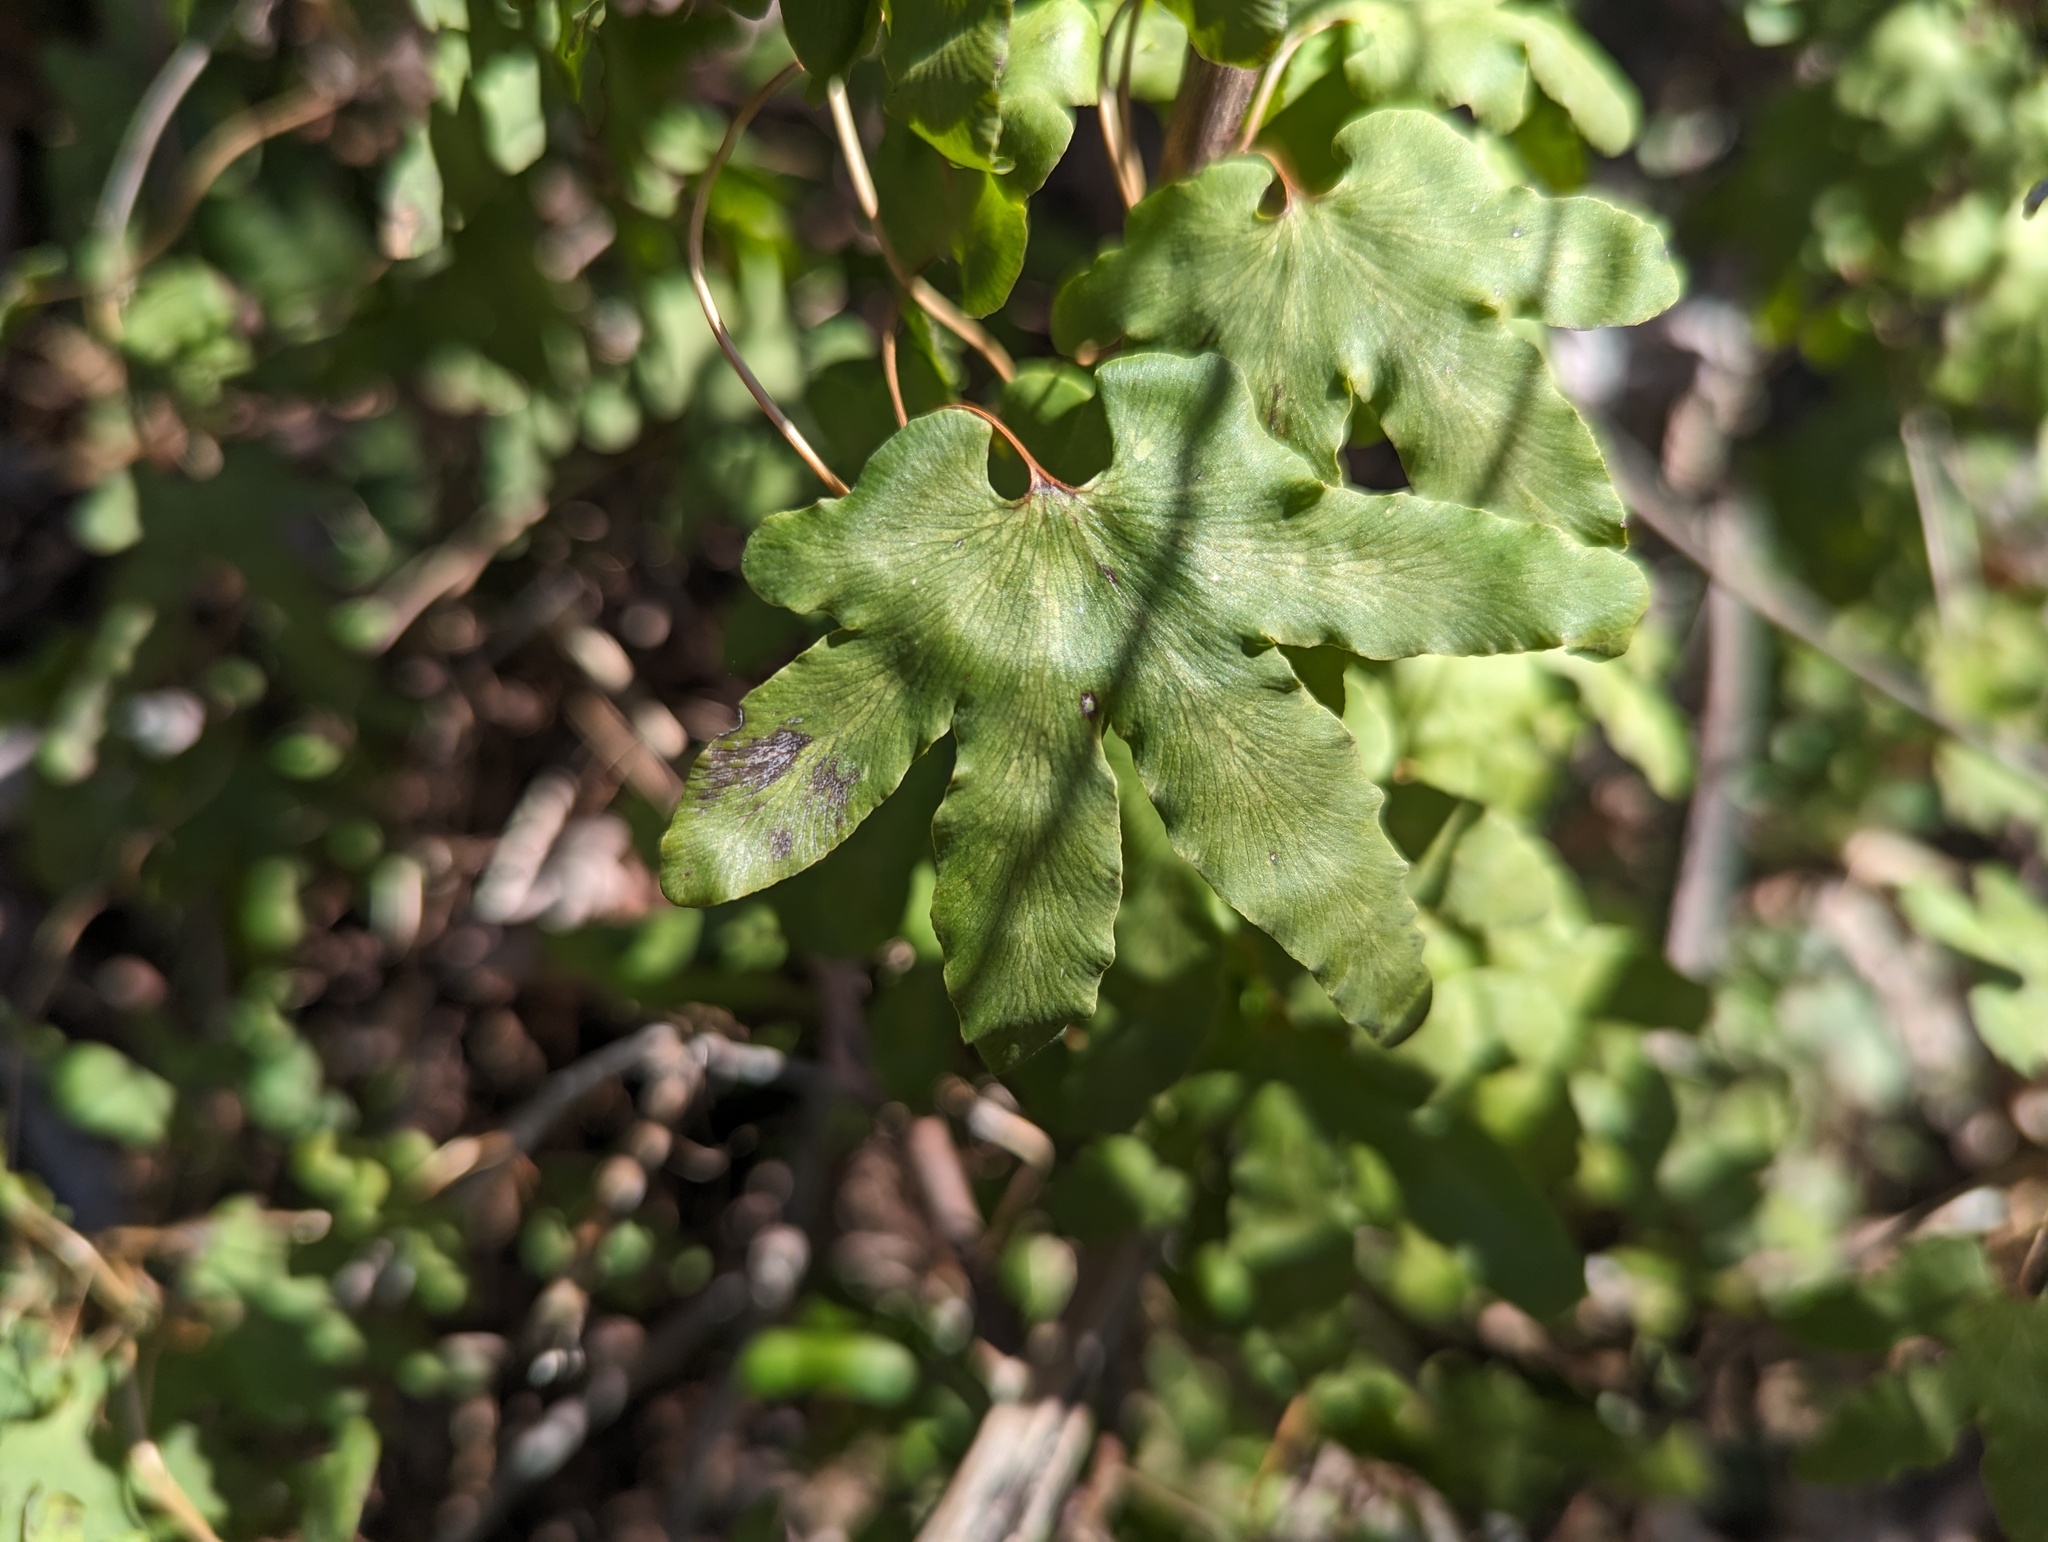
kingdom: Plantae
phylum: Tracheophyta
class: Polypodiopsida
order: Schizaeales
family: Lygodiaceae
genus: Lygodium
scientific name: Lygodium palmatum
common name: American climbing fern
